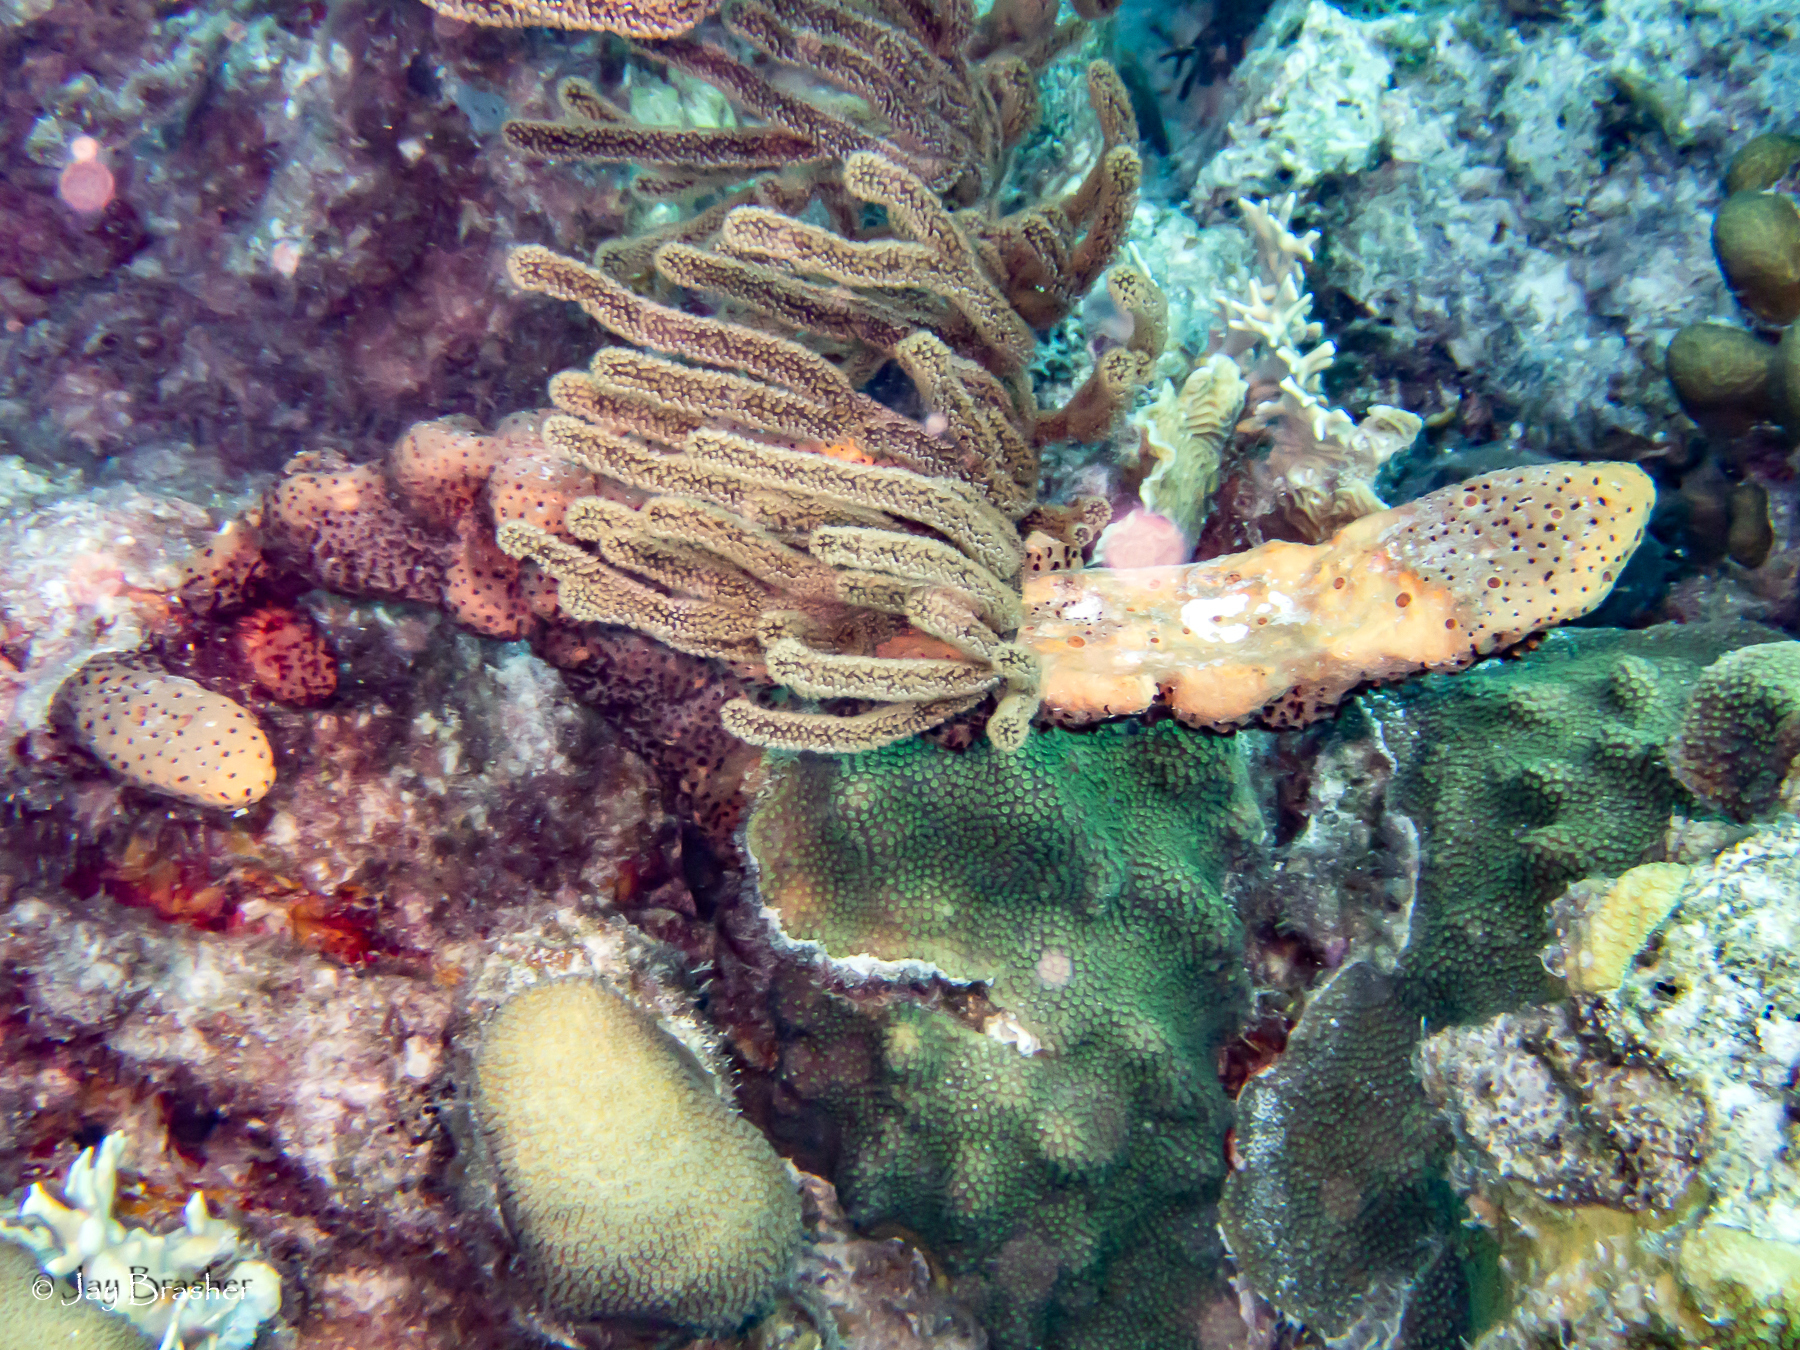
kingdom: Animalia
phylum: Porifera
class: Demospongiae
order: Agelasida
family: Agelasidae
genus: Agelas
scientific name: Agelas conifera
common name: Brown tube sponge
